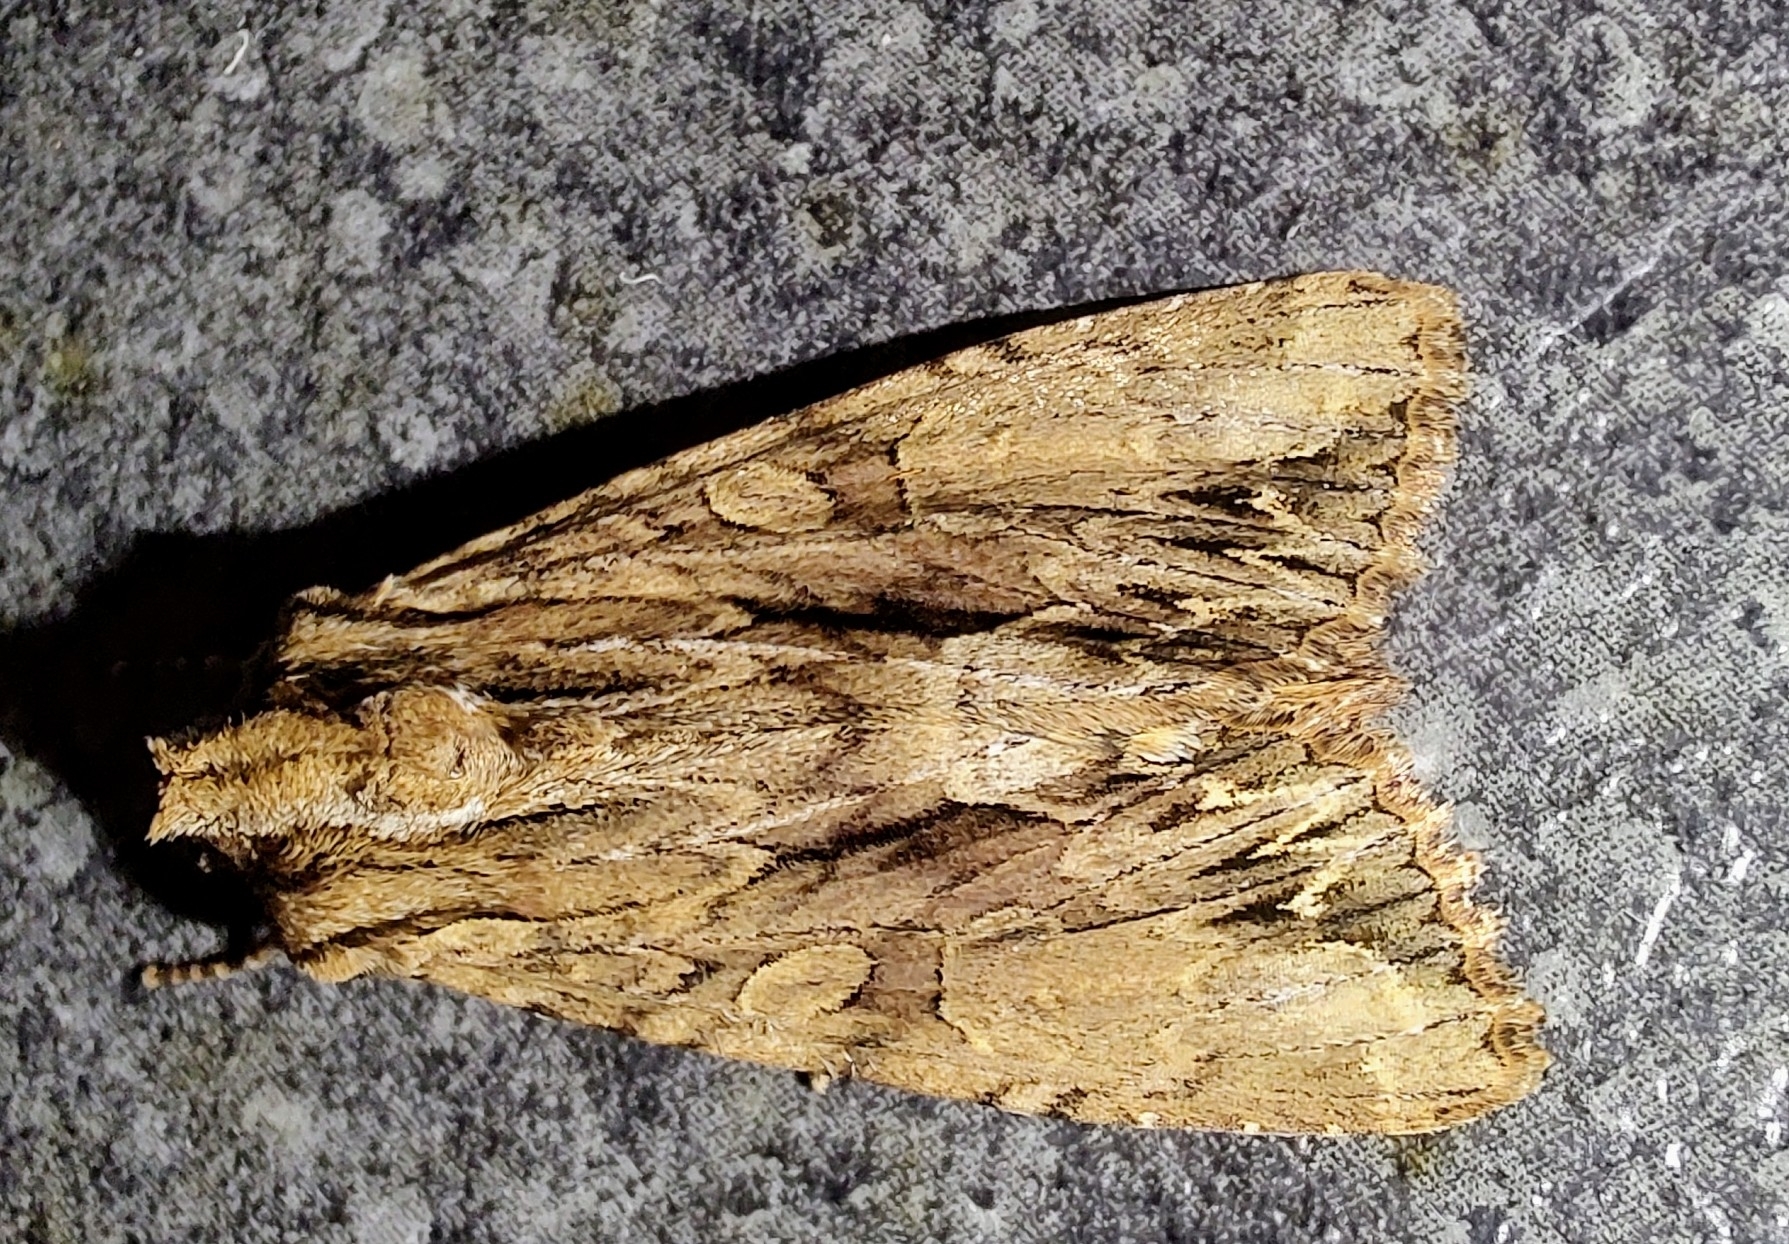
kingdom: Animalia
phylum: Arthropoda
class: Insecta
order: Lepidoptera
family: Noctuidae
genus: Apamea
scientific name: Apamea monoglypha
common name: Dark arches
